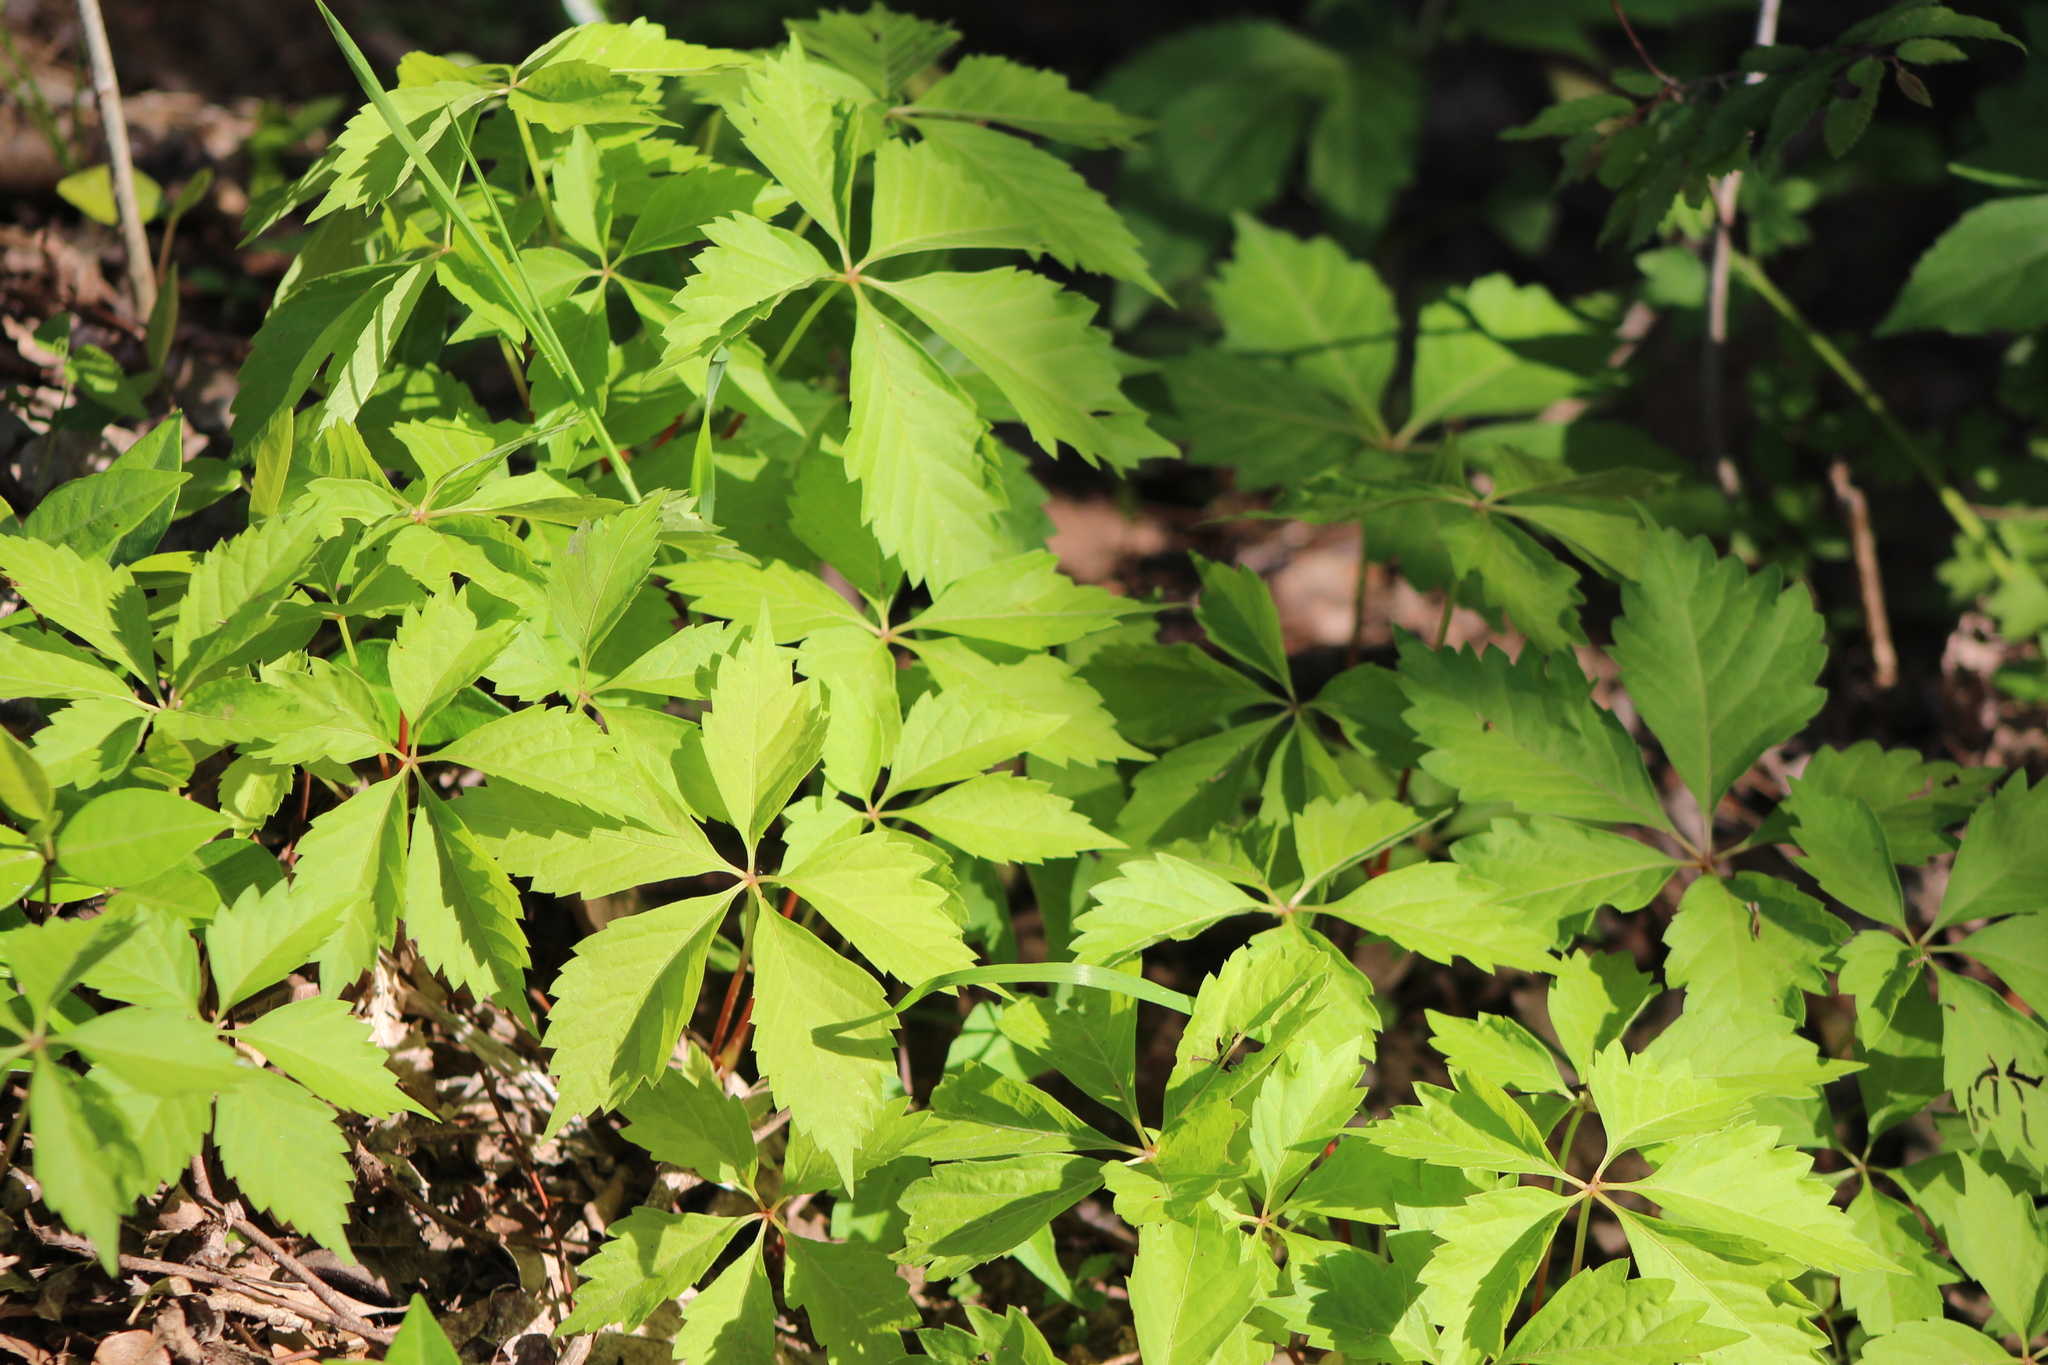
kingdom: Plantae
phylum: Tracheophyta
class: Magnoliopsida
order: Vitales
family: Vitaceae
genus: Parthenocissus
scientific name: Parthenocissus quinquefolia
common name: Virginia-creeper
